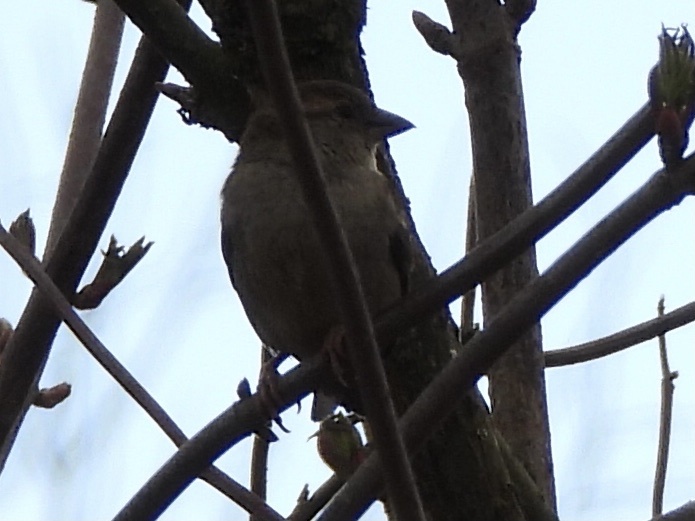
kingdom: Animalia
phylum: Chordata
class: Aves
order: Passeriformes
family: Passeridae
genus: Passer
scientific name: Passer domesticus
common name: House sparrow
